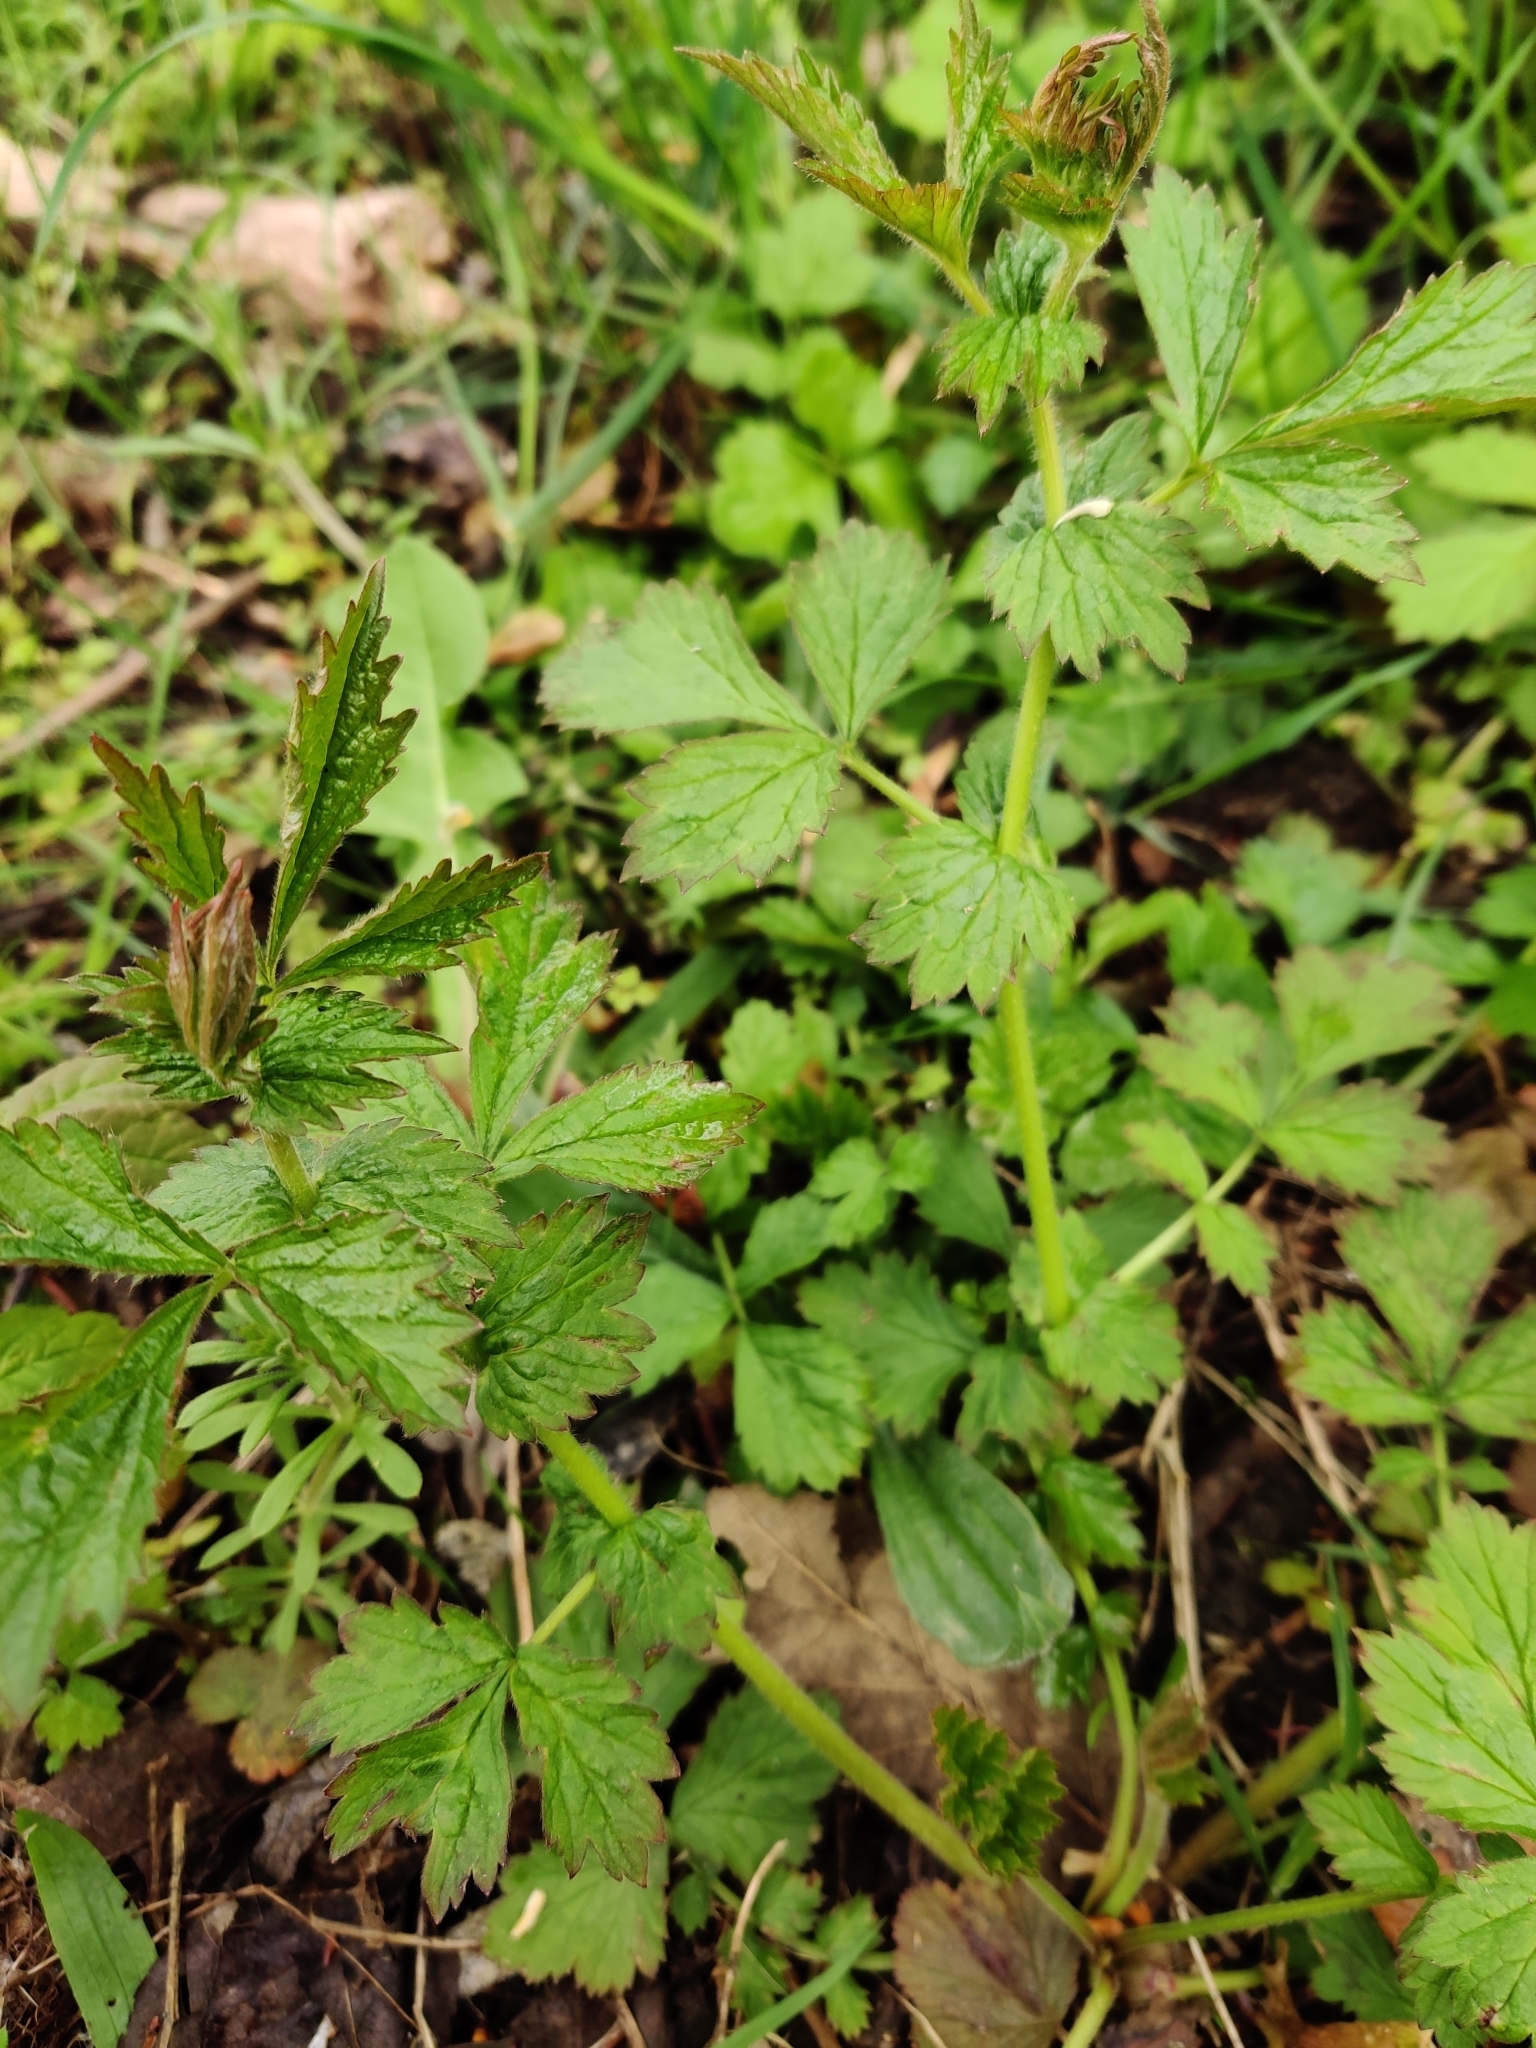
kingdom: Plantae
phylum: Tracheophyta
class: Magnoliopsida
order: Rosales
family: Rosaceae
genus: Geum
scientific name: Geum urbanum
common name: Wood avens
